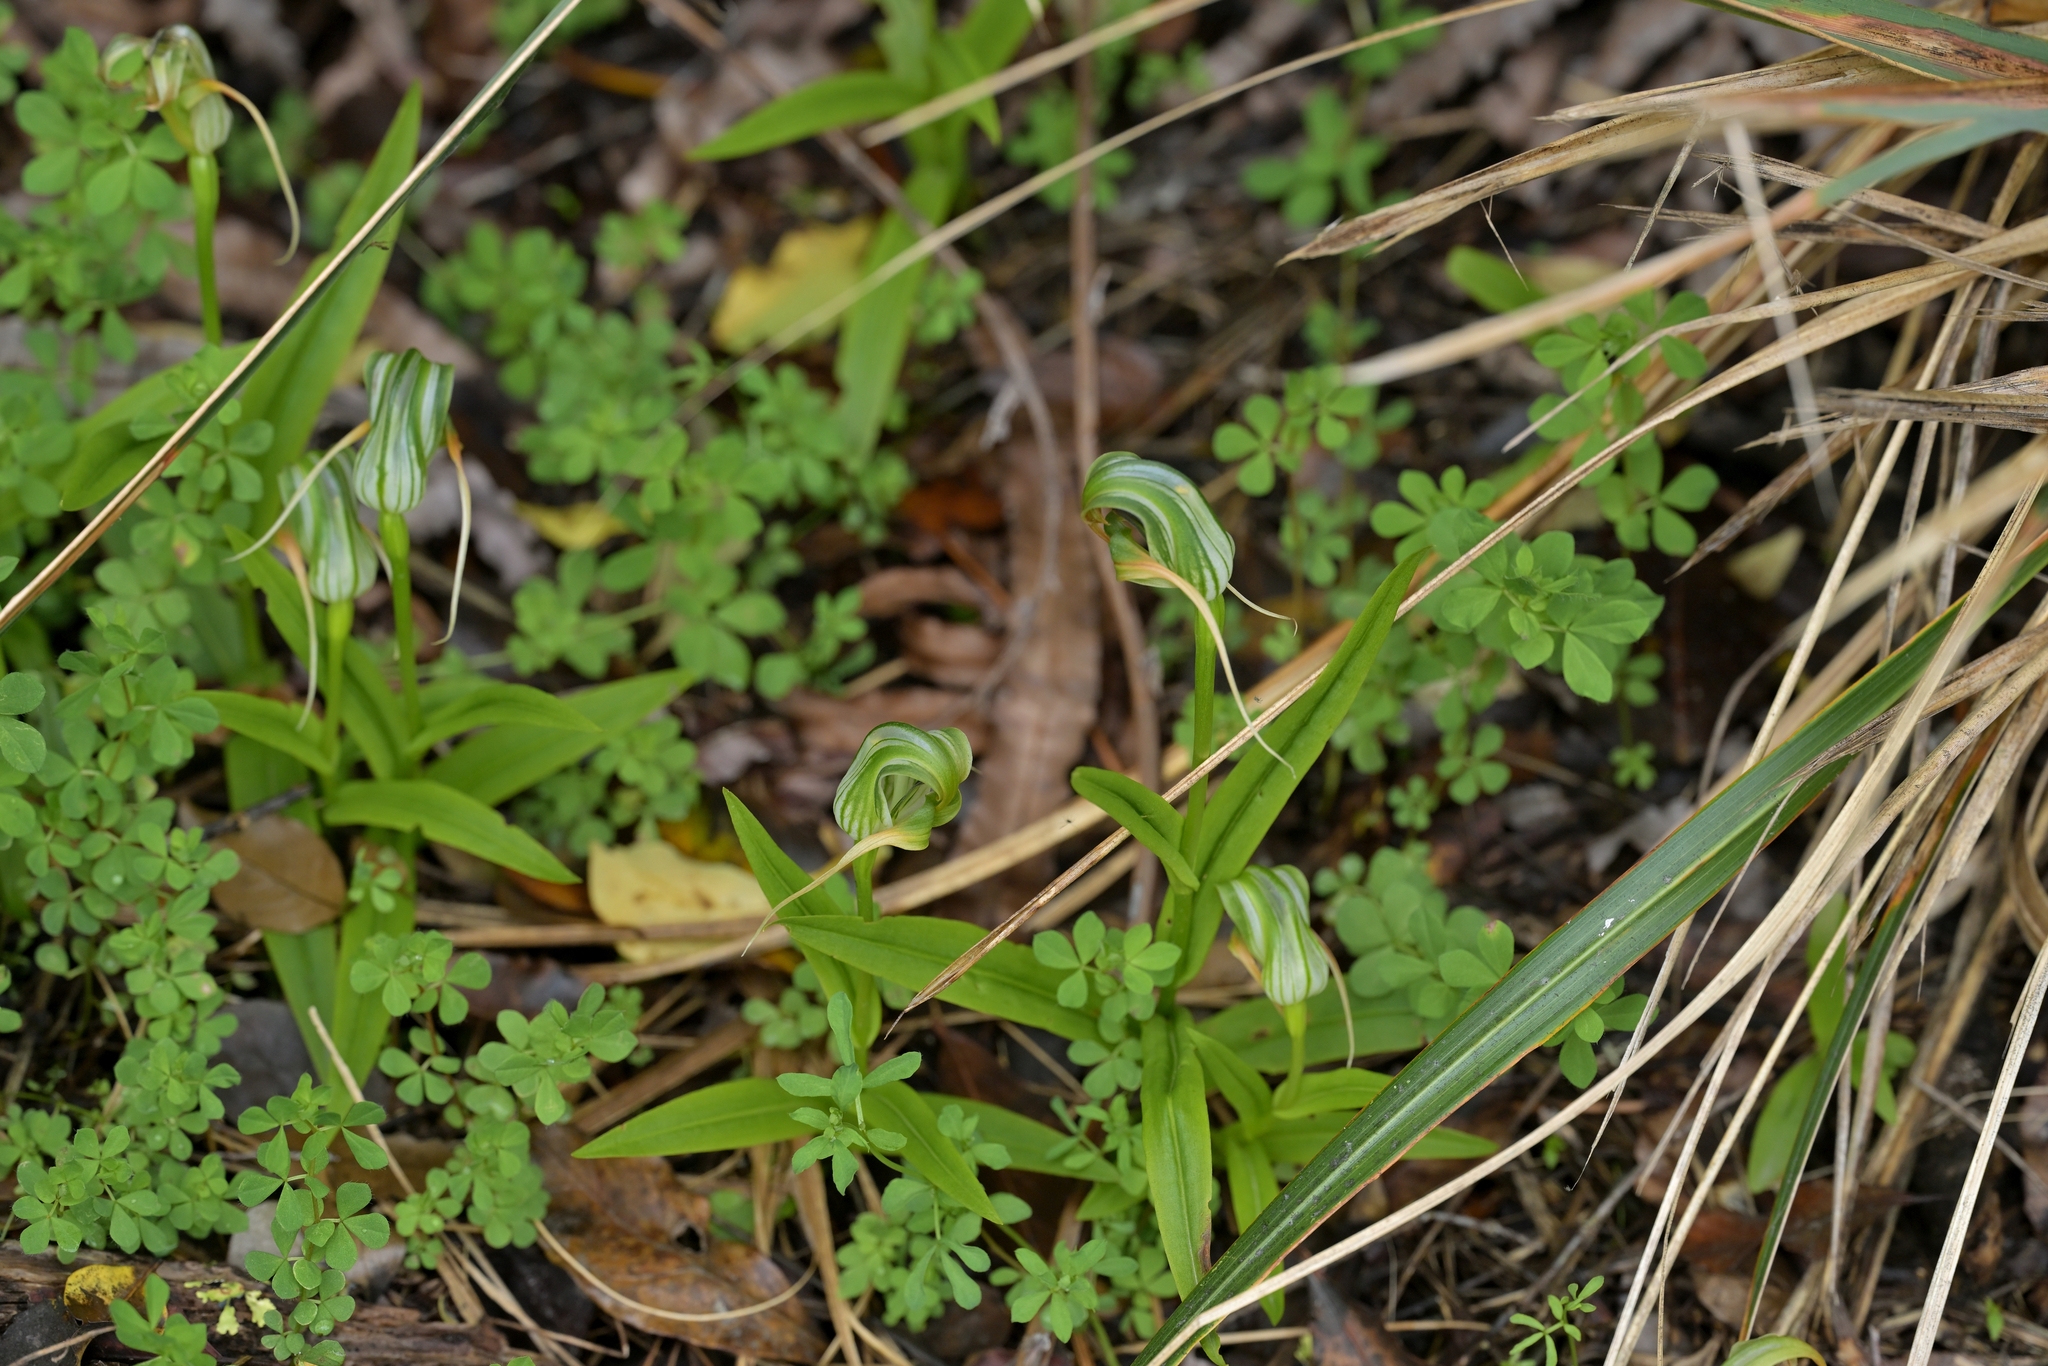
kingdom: Plantae
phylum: Tracheophyta
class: Liliopsida
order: Asparagales
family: Orchidaceae
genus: Pterostylis
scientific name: Pterostylis patens
